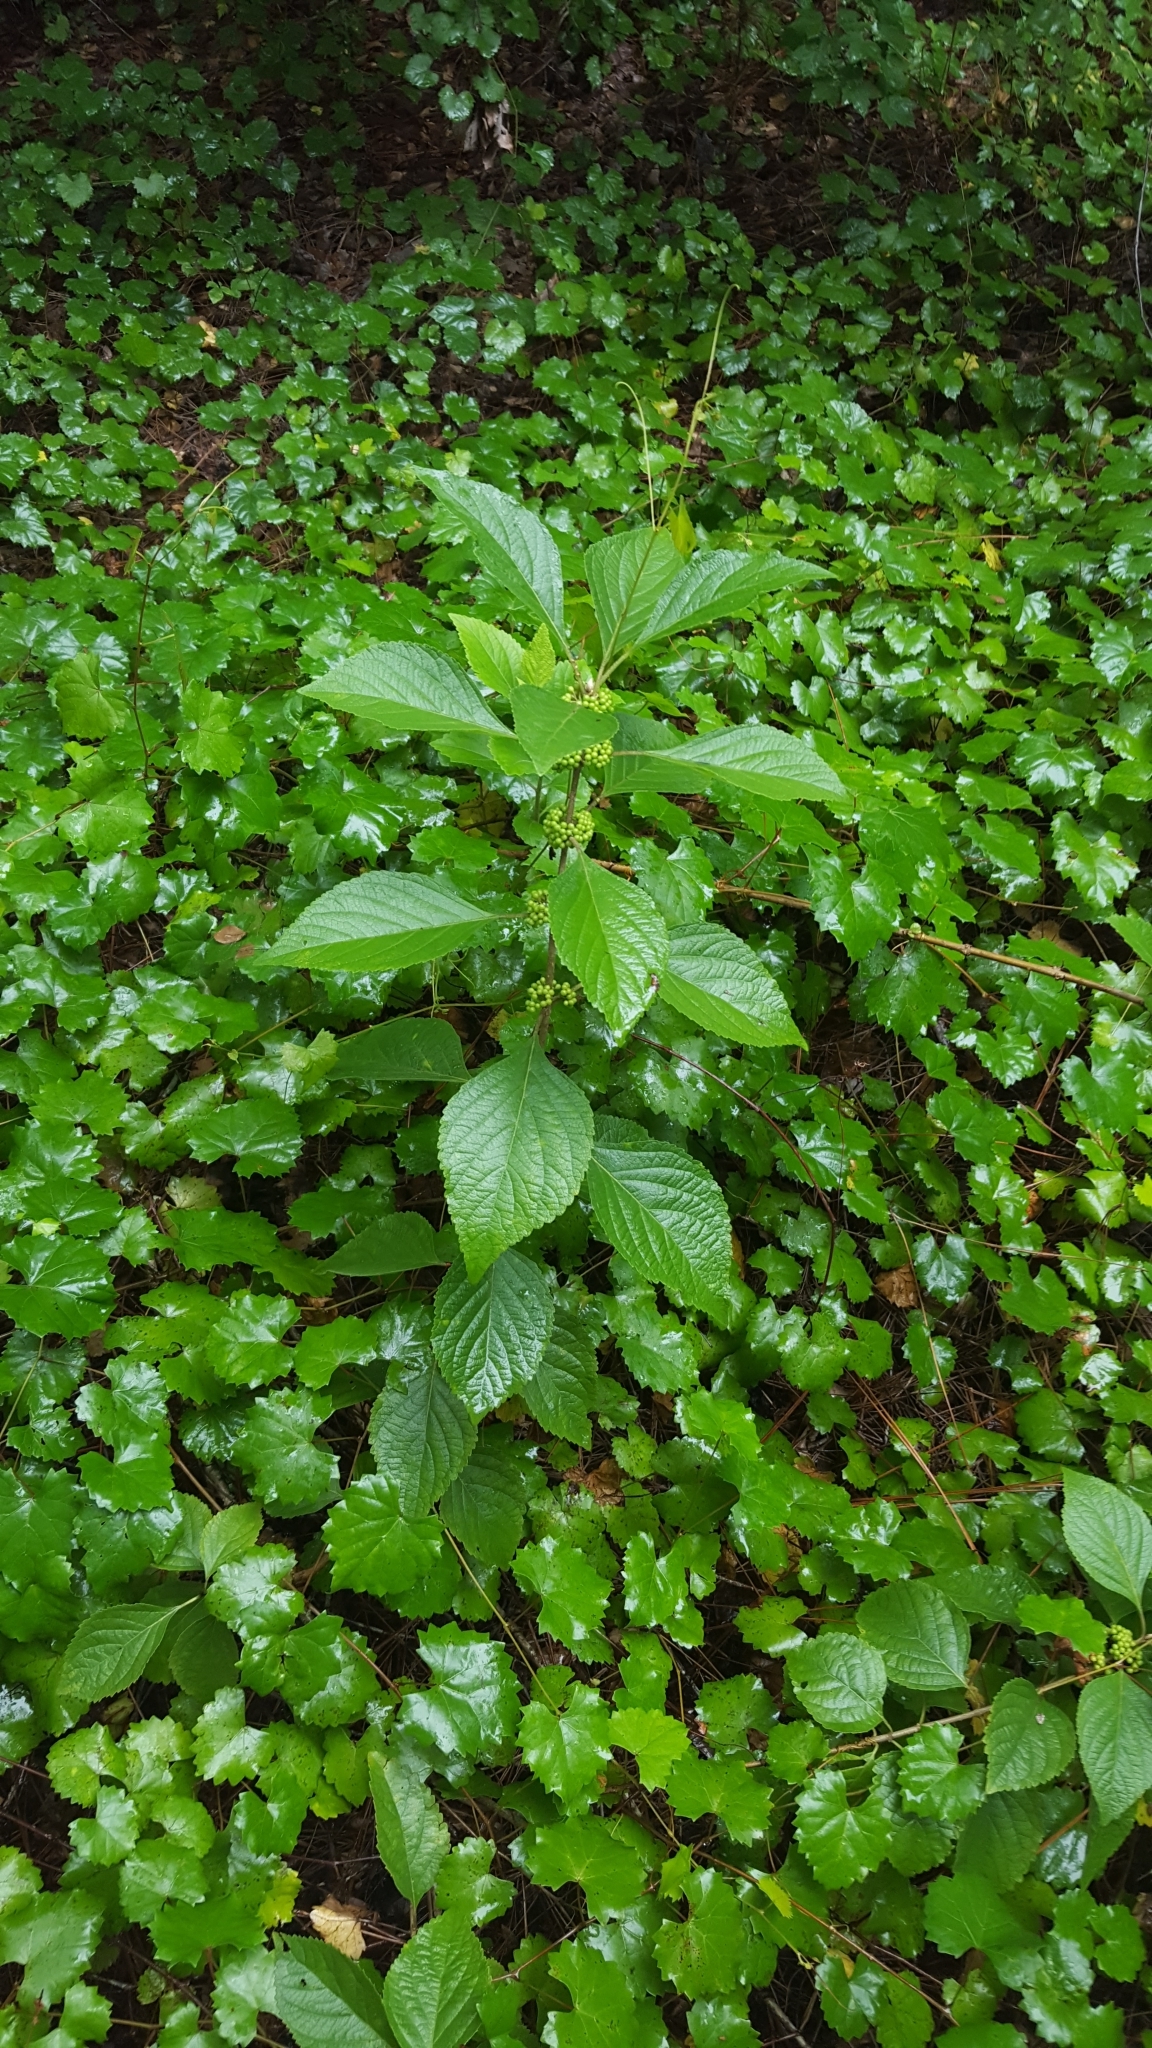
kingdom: Plantae
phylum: Tracheophyta
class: Magnoliopsida
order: Lamiales
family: Lamiaceae
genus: Callicarpa
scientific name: Callicarpa americana
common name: American beautyberry
